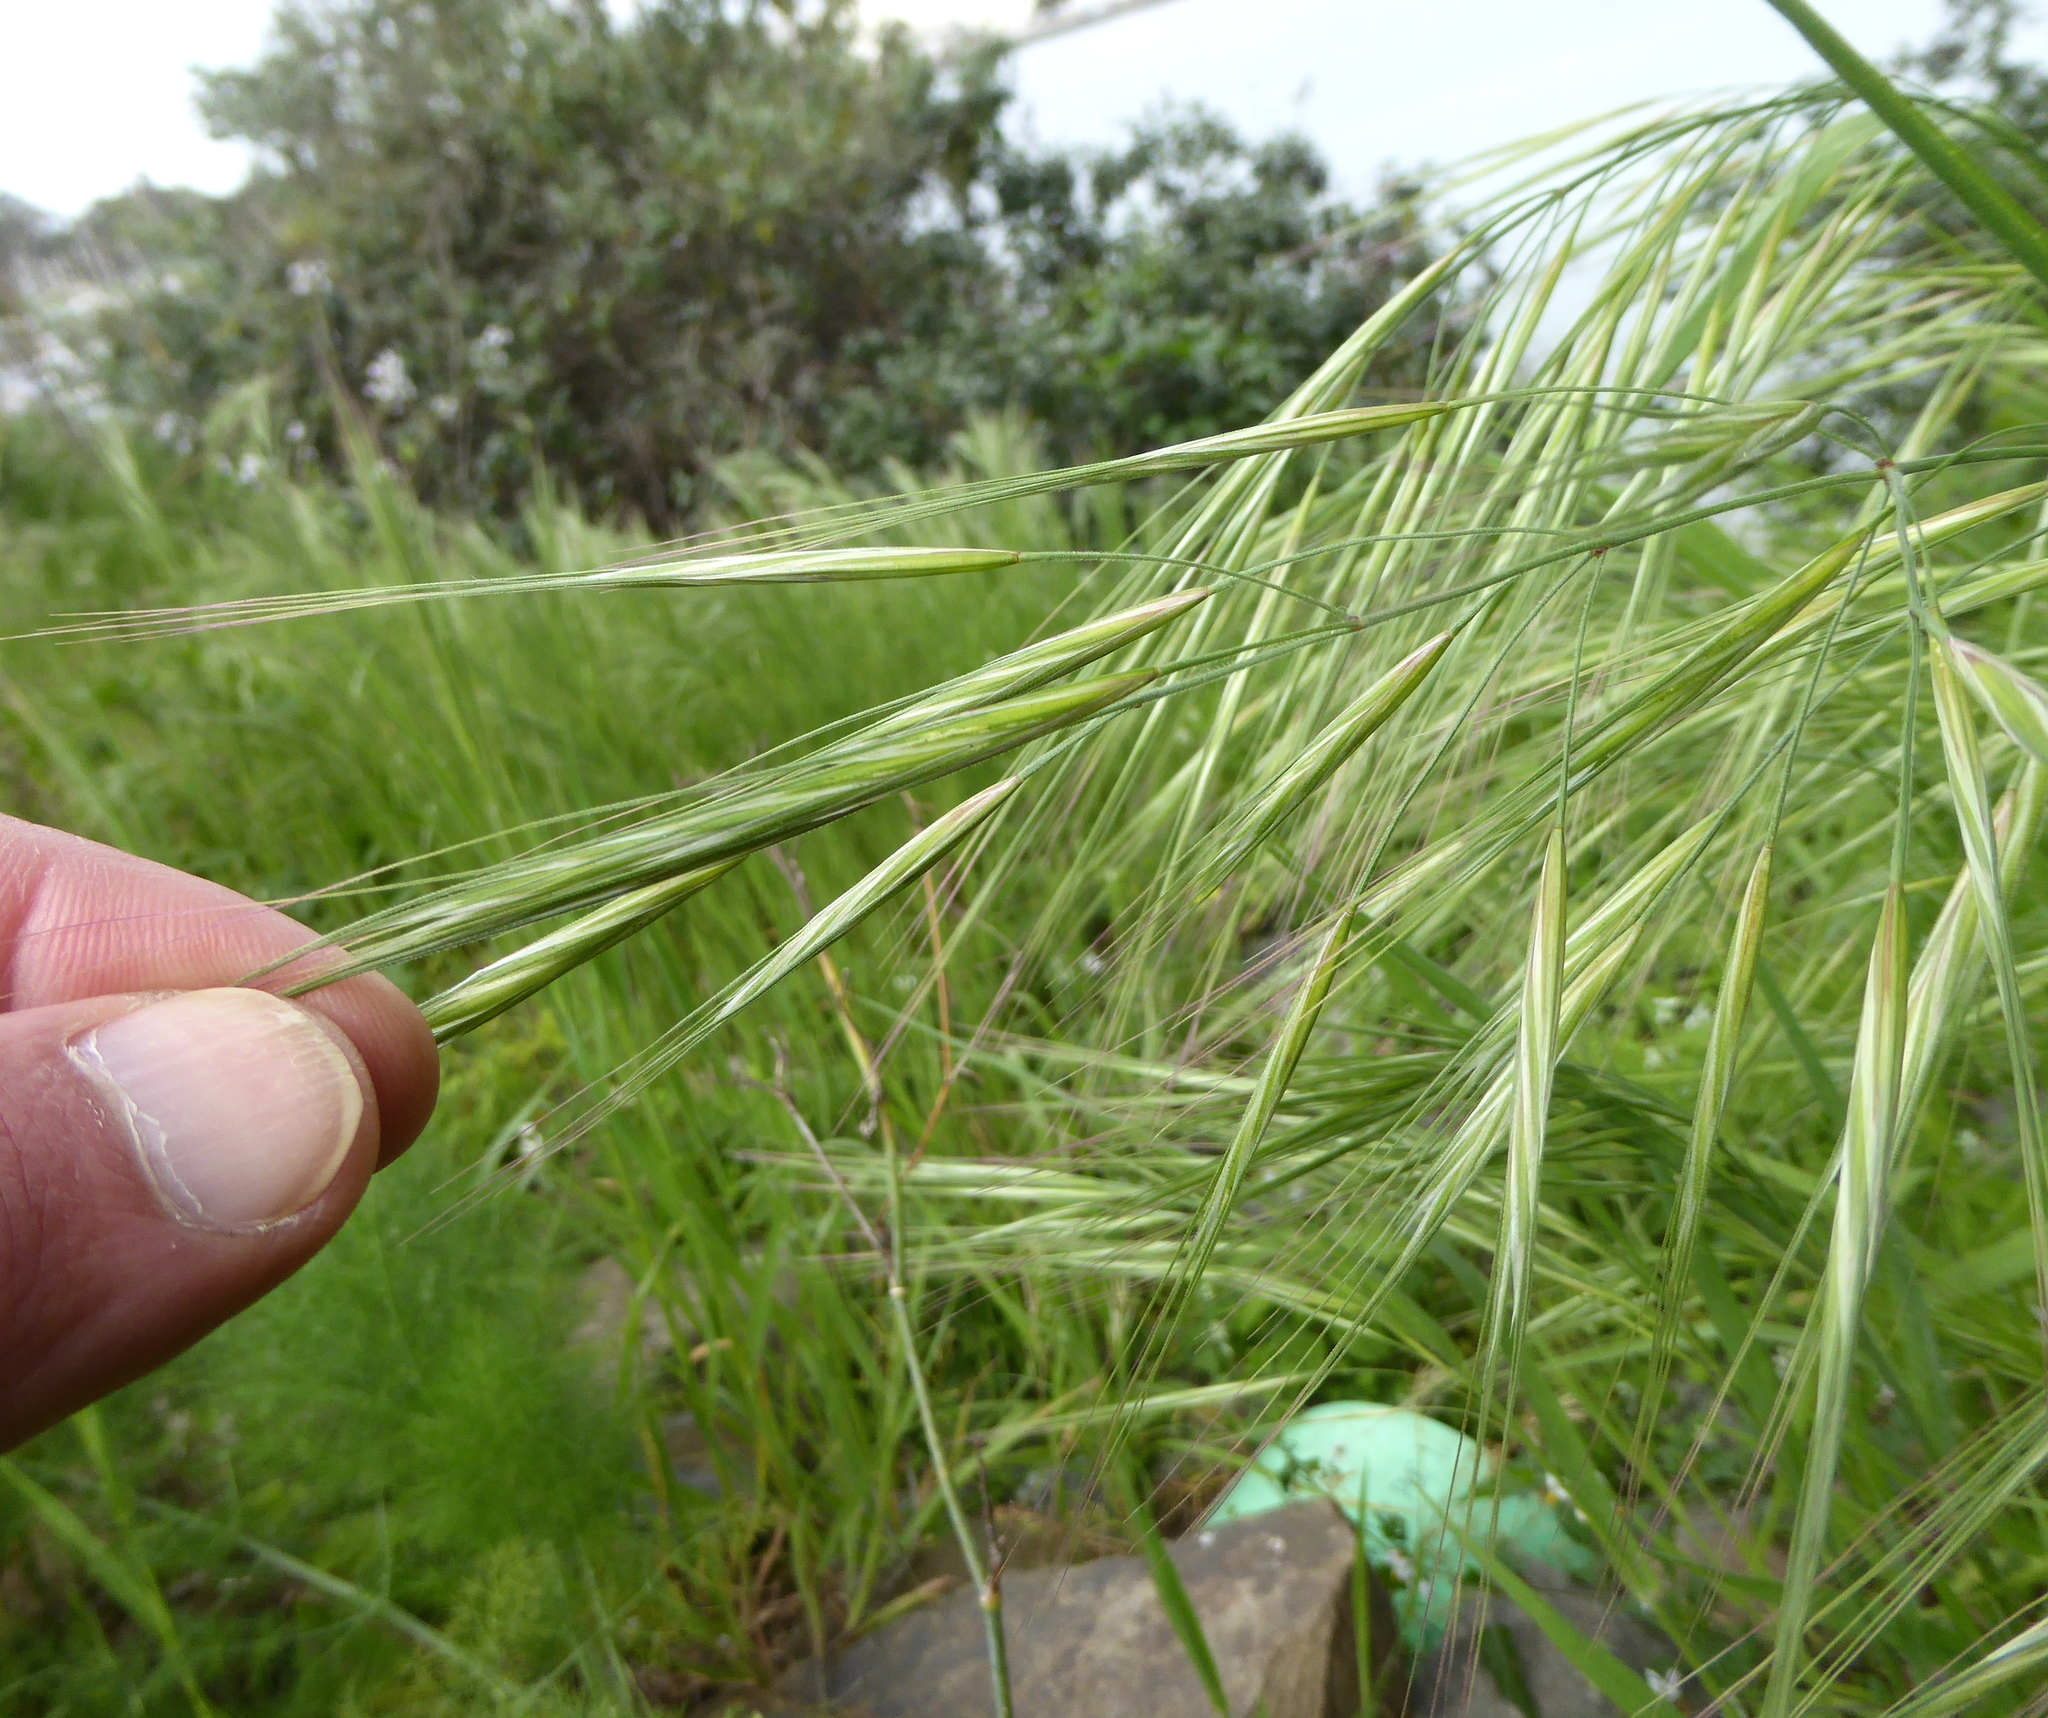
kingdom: Plantae
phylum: Tracheophyta
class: Liliopsida
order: Poales
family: Poaceae
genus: Bromus
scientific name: Bromus diandrus
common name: Ripgut brome
